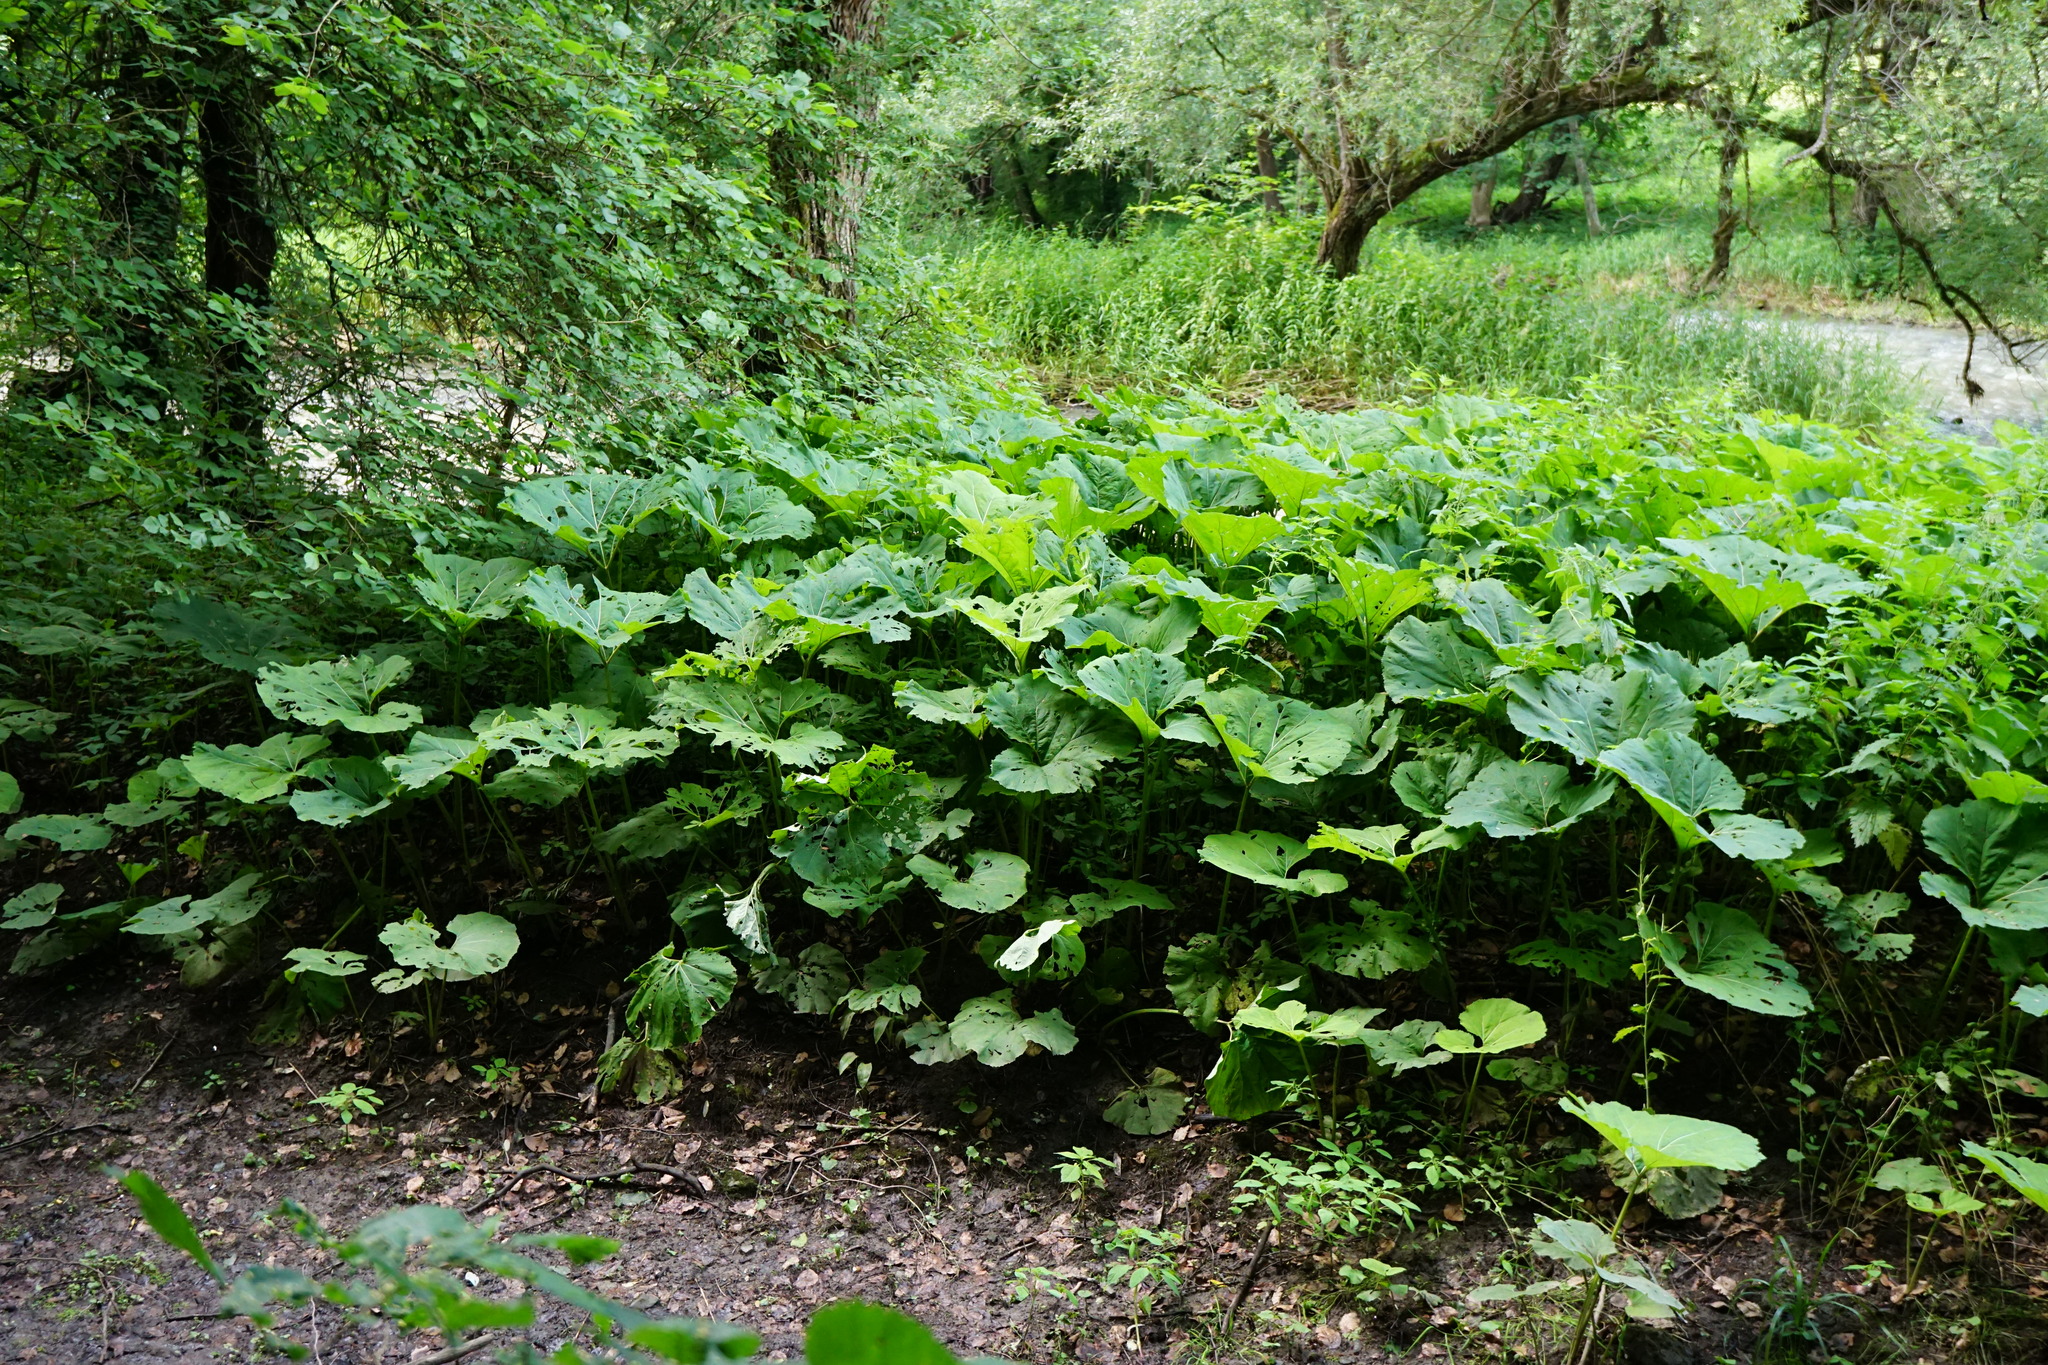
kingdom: Plantae
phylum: Tracheophyta
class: Magnoliopsida
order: Asterales
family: Asteraceae
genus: Petasites
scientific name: Petasites hybridus
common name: Butterbur
